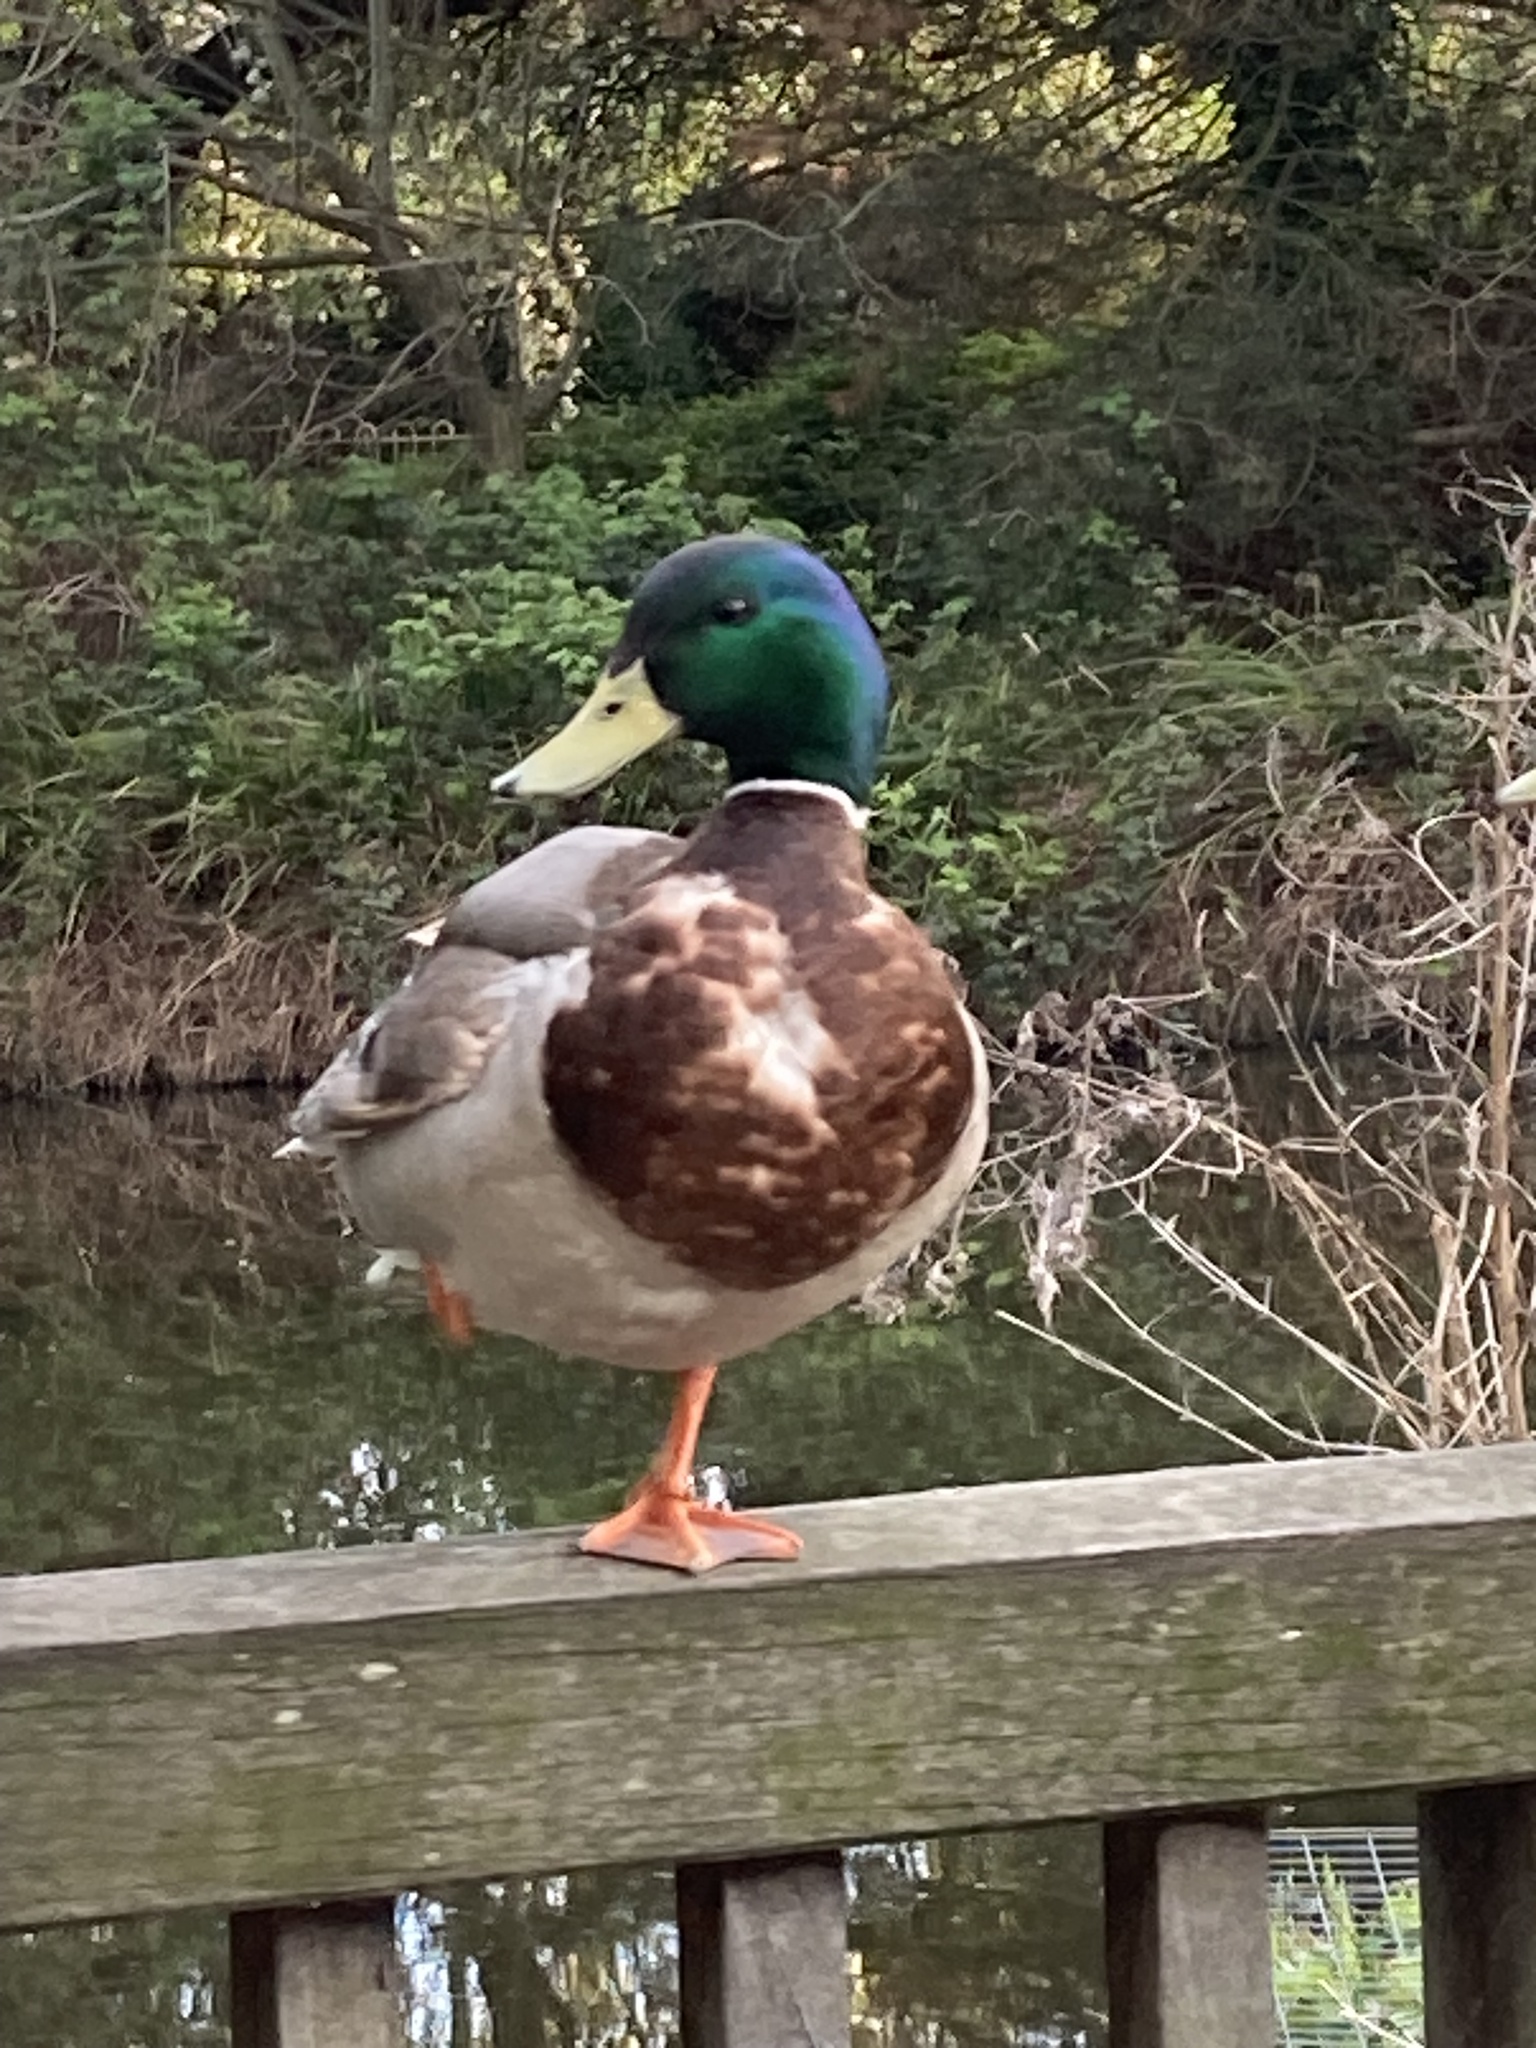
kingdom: Animalia
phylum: Chordata
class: Aves
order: Anseriformes
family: Anatidae
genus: Anas
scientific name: Anas platyrhynchos
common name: Mallard
